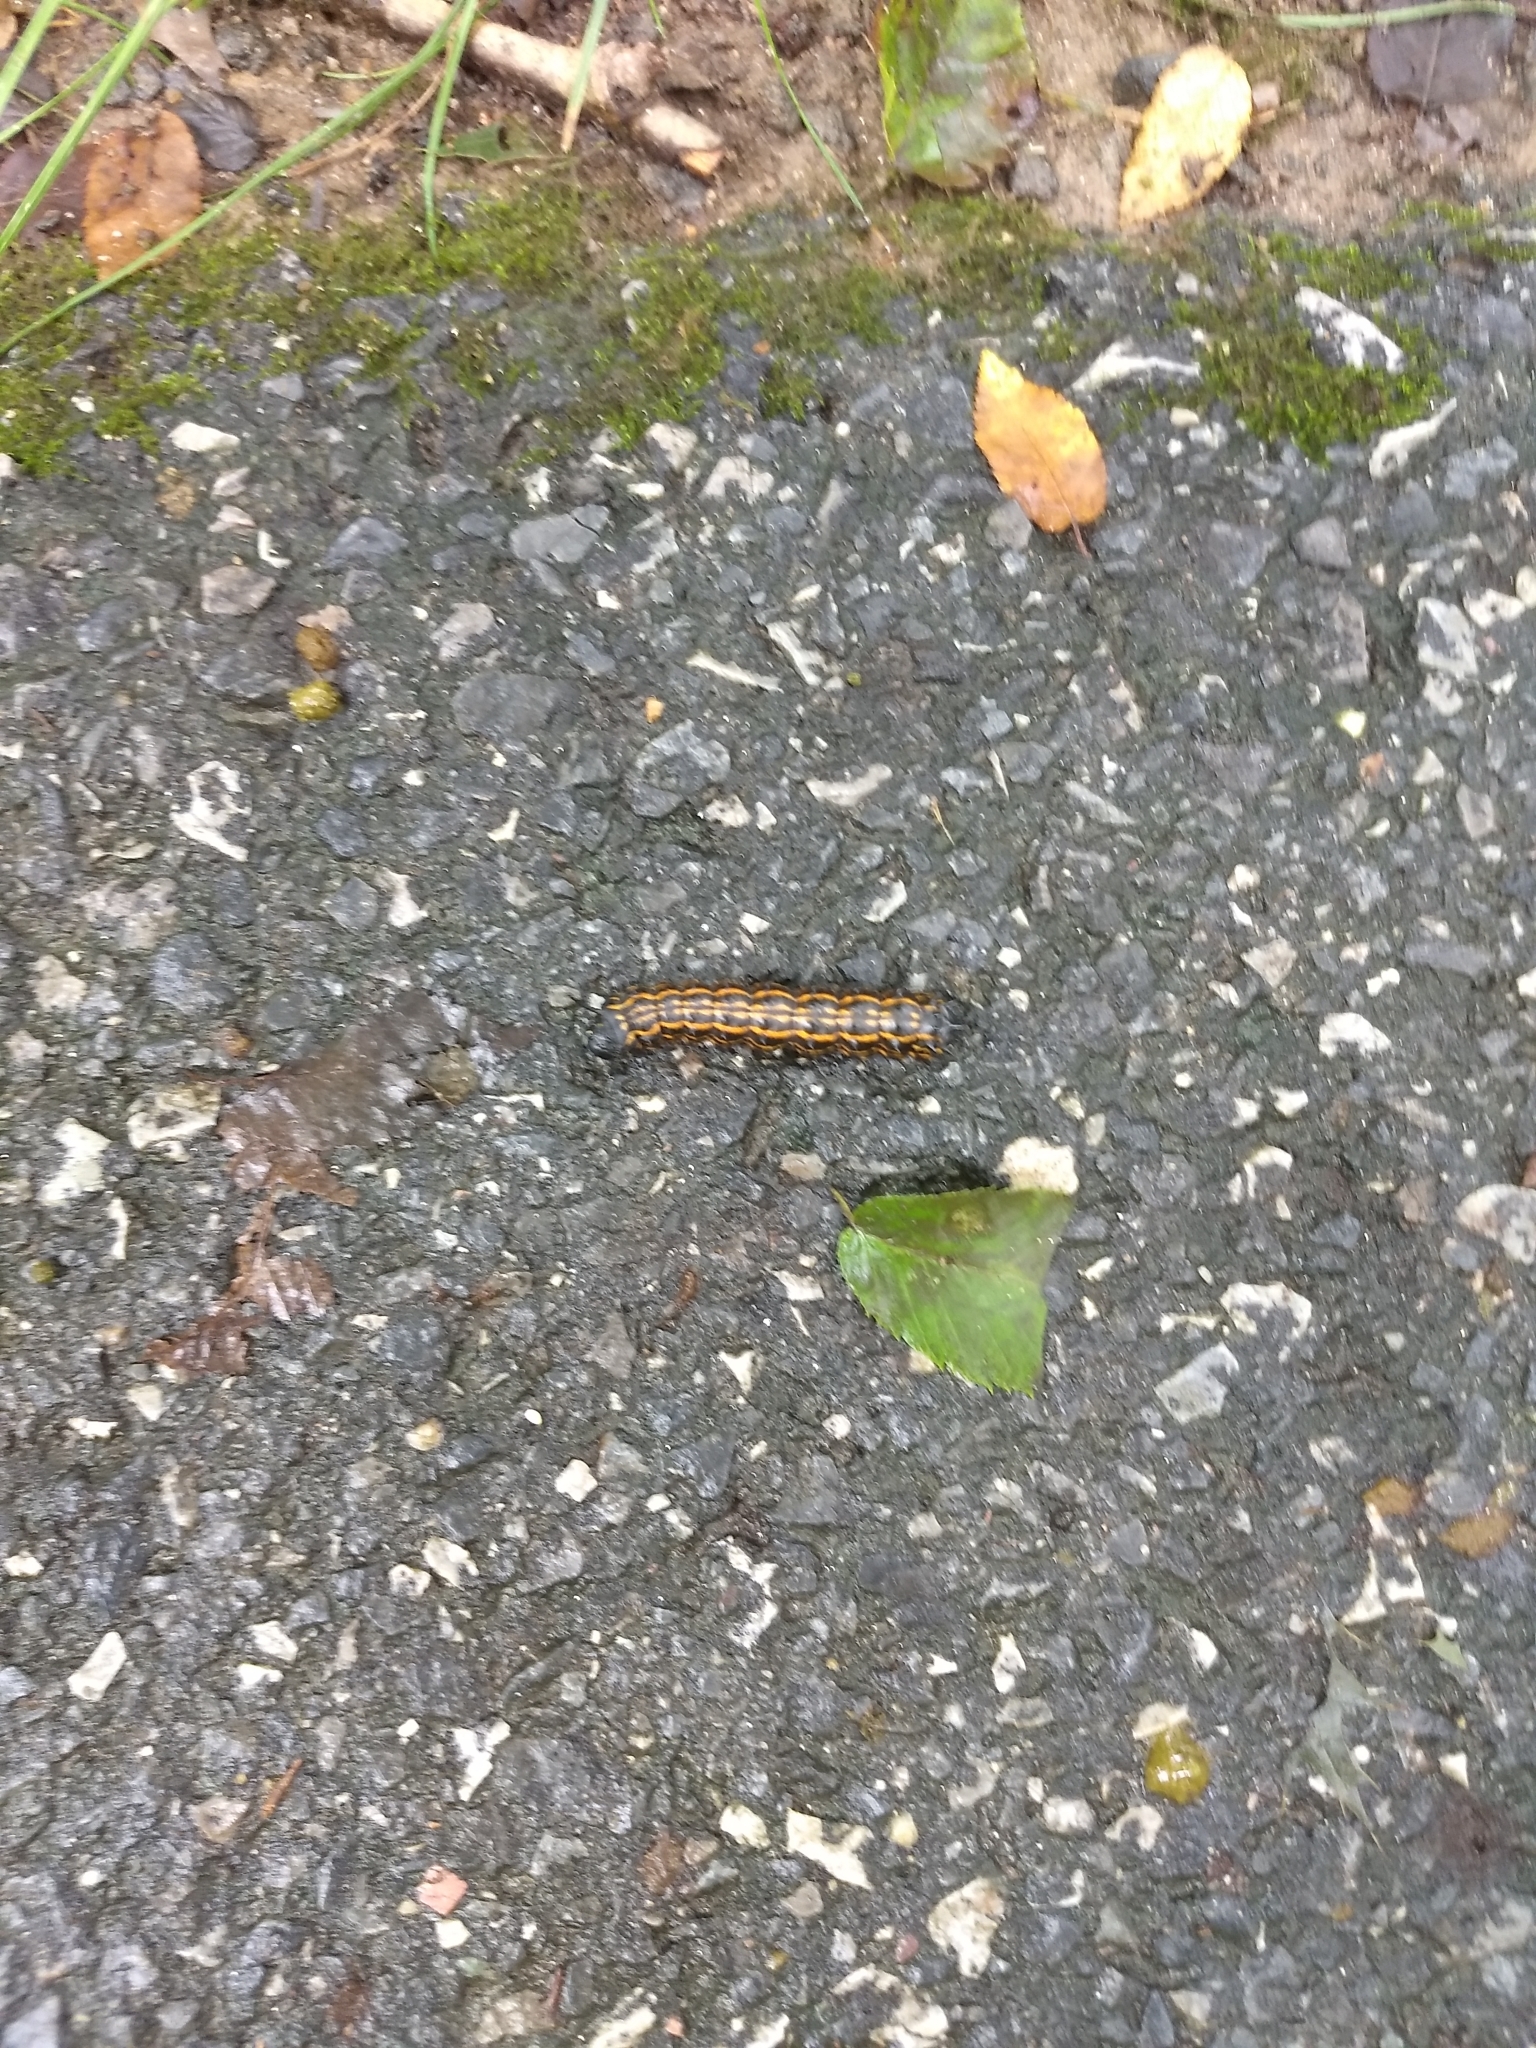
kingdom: Animalia
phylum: Arthropoda
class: Insecta
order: Lepidoptera
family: Saturniidae
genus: Anisota
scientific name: Anisota senatoria
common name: Orange-striped oakworm moth
